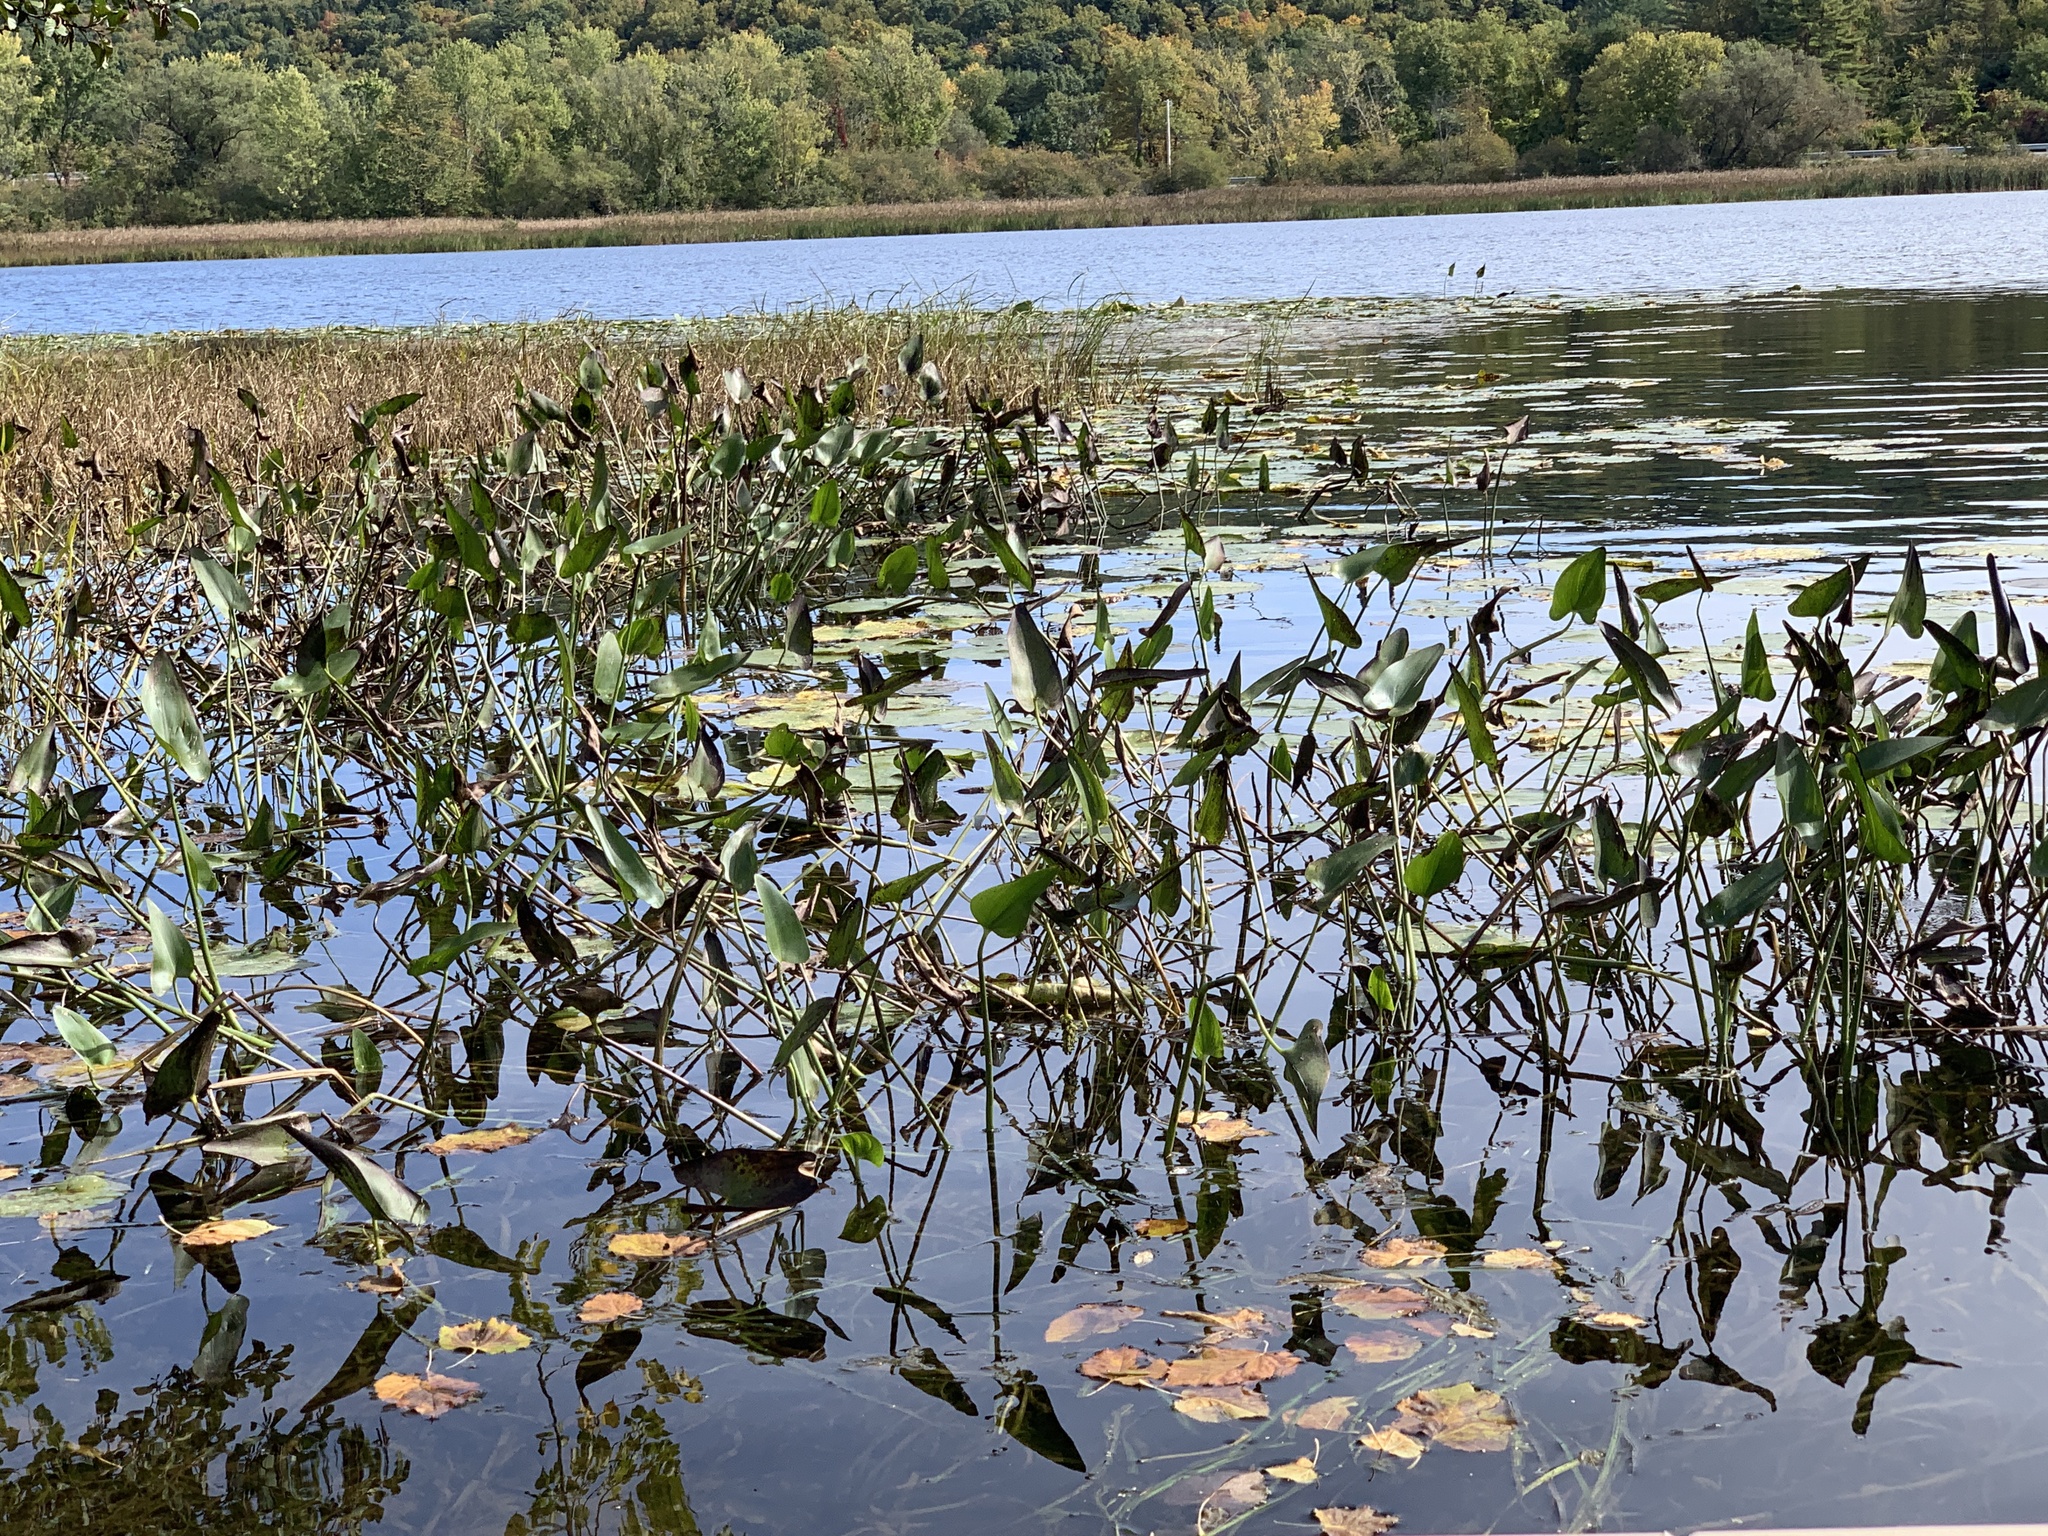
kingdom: Plantae
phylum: Tracheophyta
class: Liliopsida
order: Commelinales
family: Pontederiaceae
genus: Pontederia
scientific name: Pontederia cordata
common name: Pickerelweed
